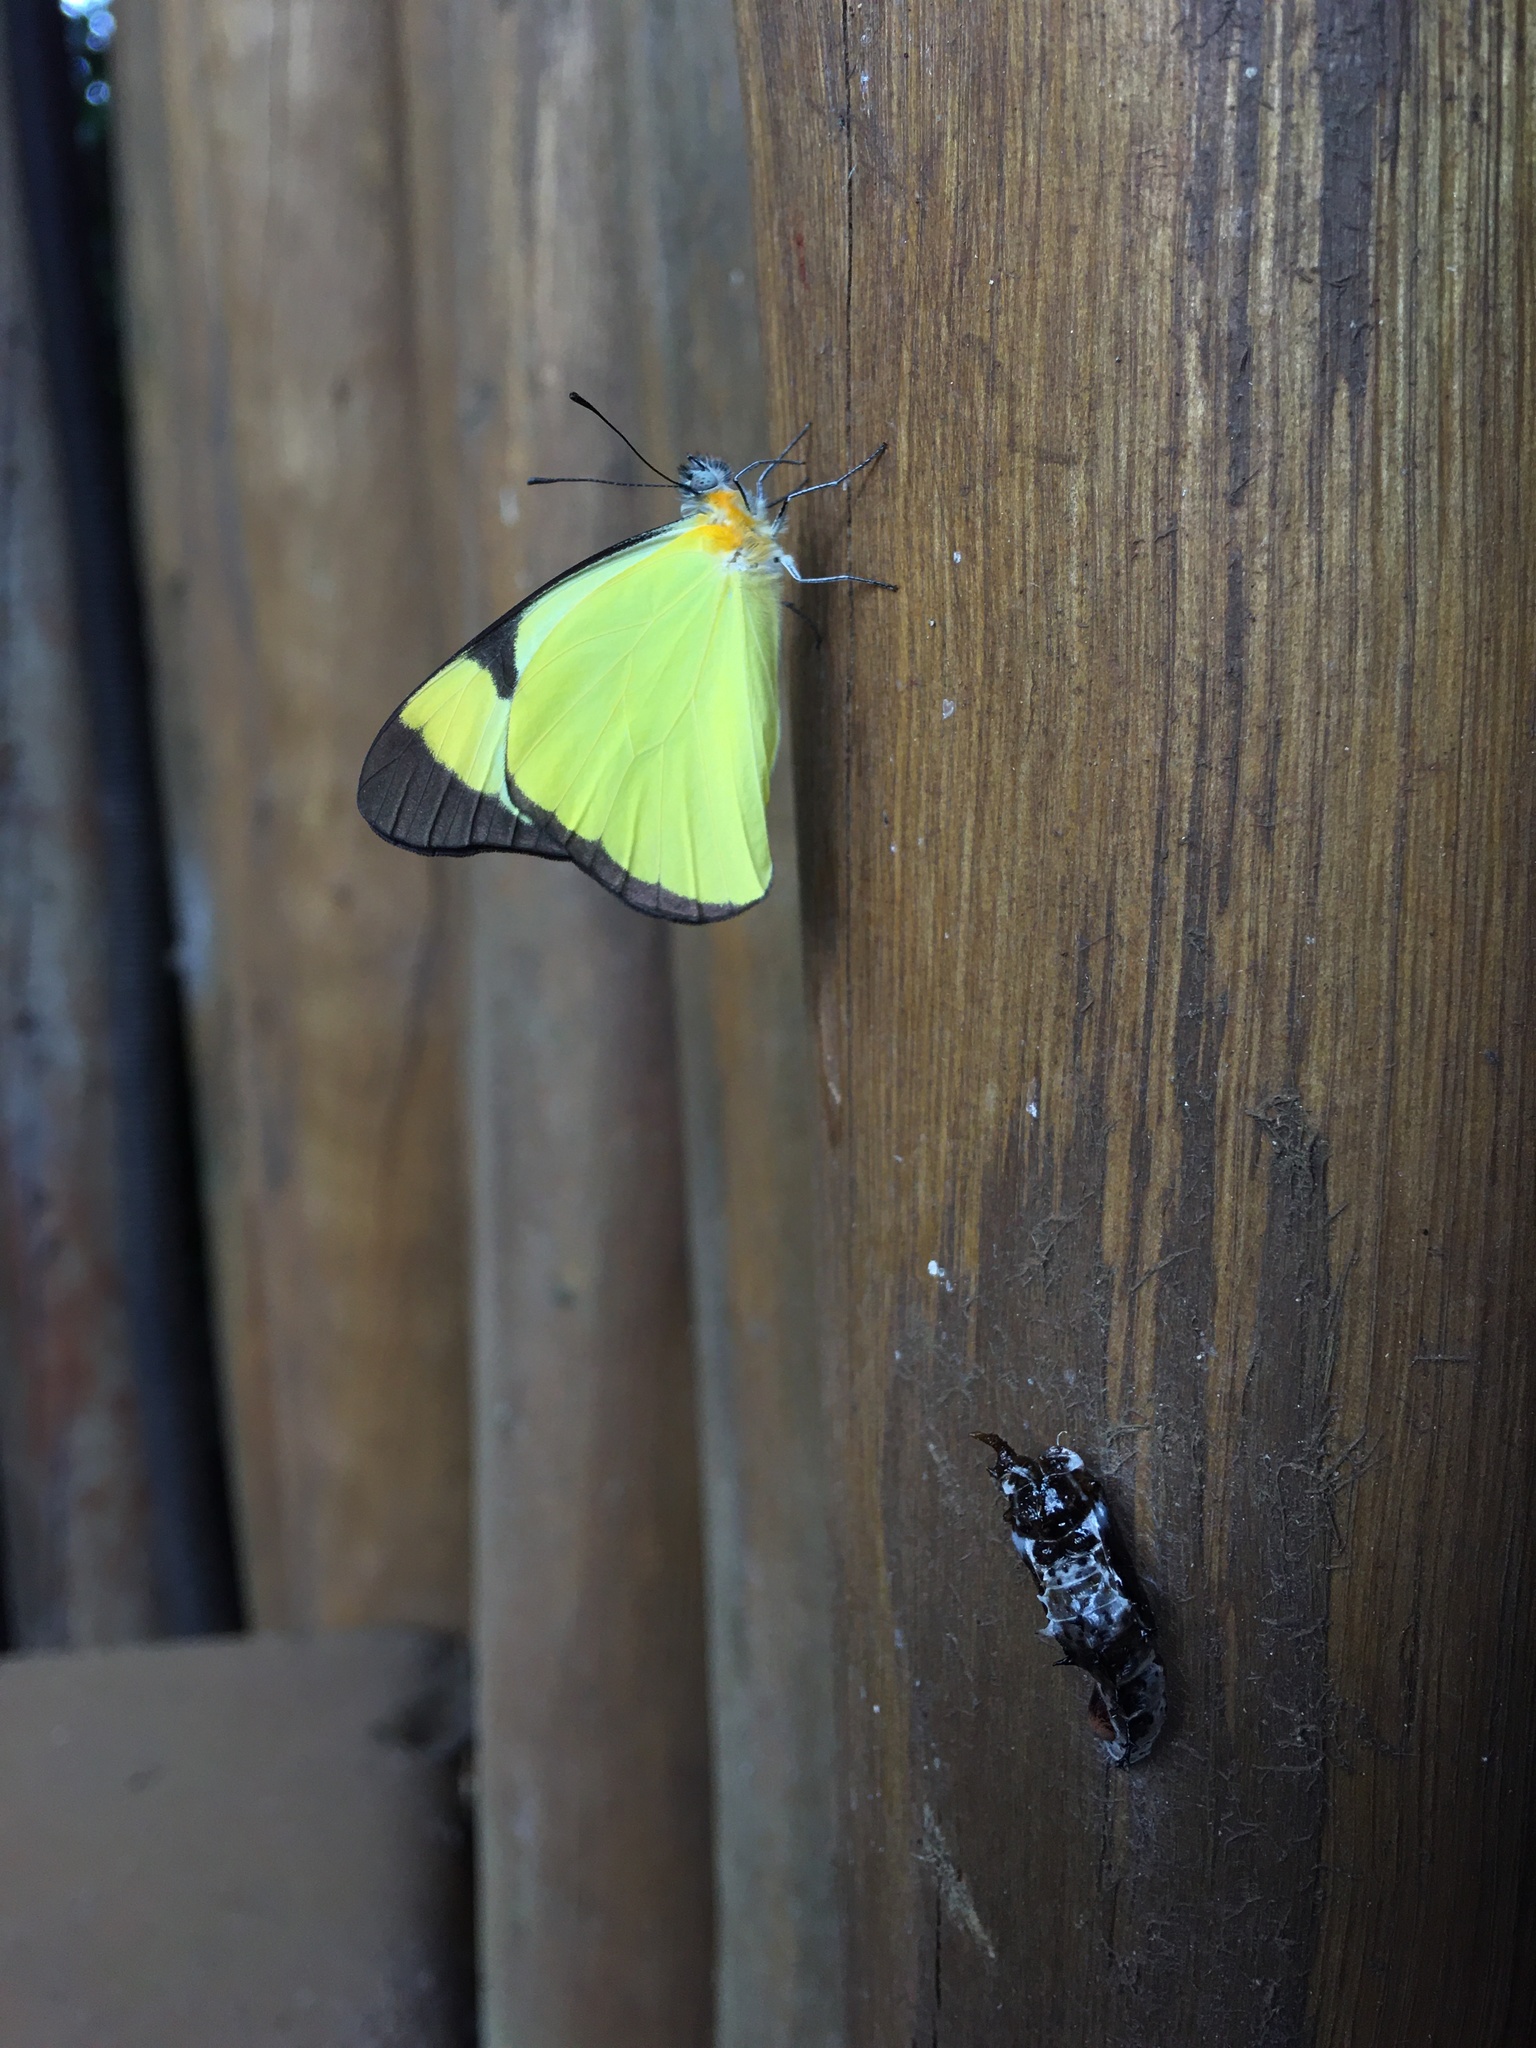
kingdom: Animalia
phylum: Arthropoda
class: Insecta
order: Lepidoptera
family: Pieridae
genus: Melete
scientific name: Melete lycimnia
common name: Common melwhite
